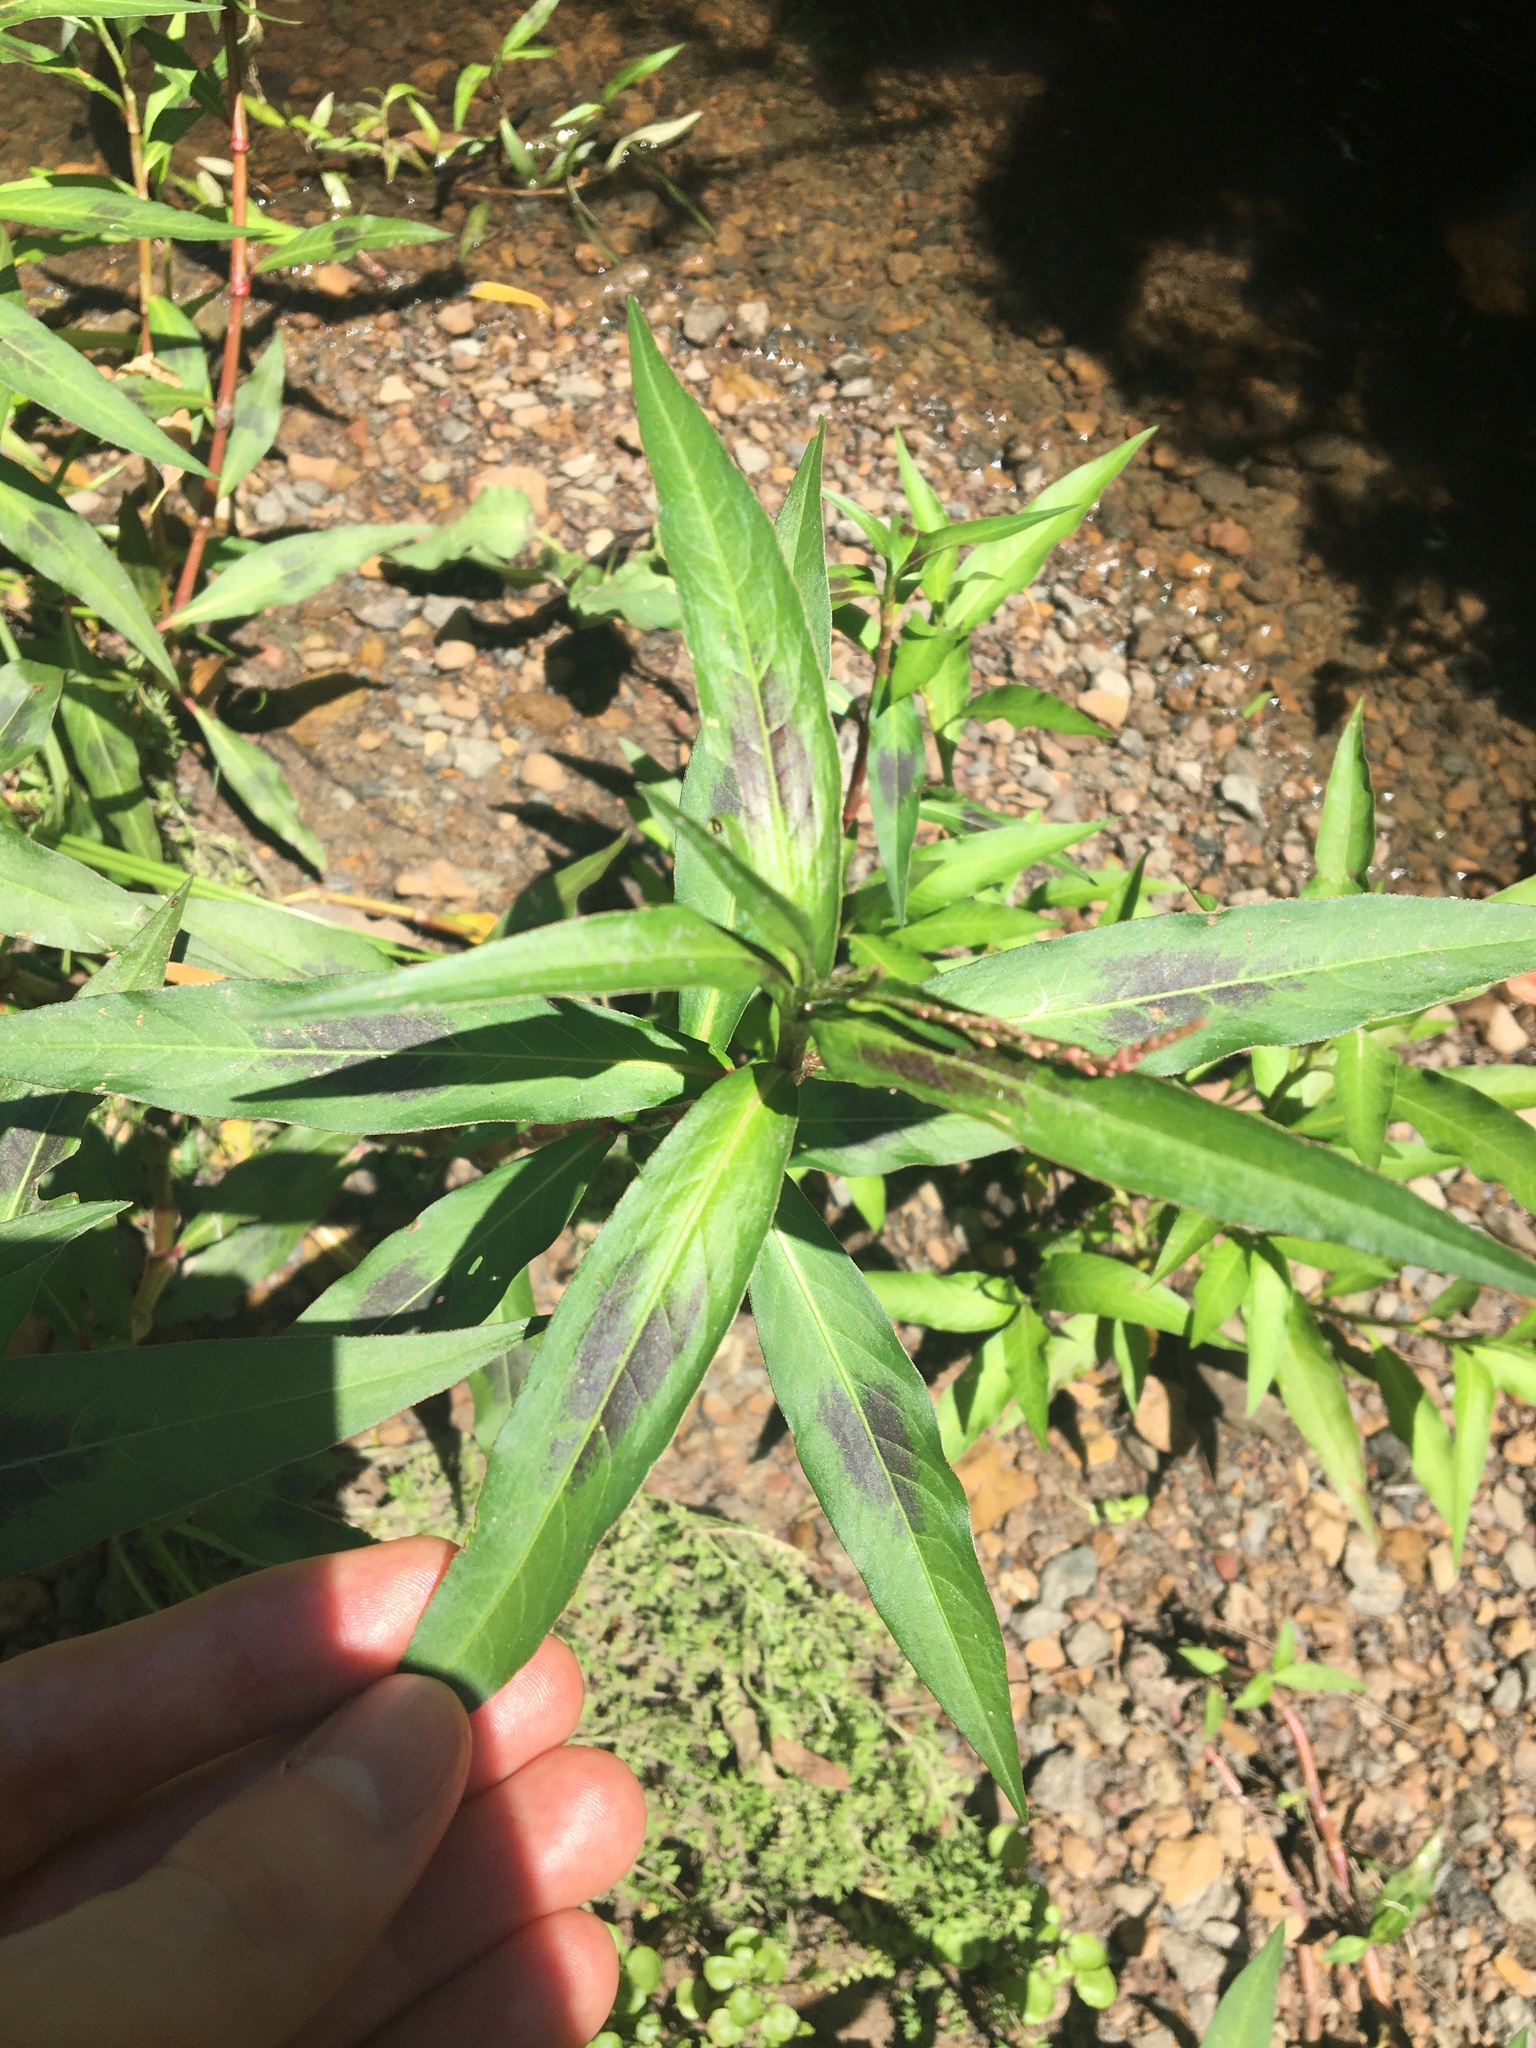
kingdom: Plantae
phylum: Tracheophyta
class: Magnoliopsida
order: Caryophyllales
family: Polygonaceae
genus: Persicaria
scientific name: Persicaria decipiens
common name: Willow-weed
